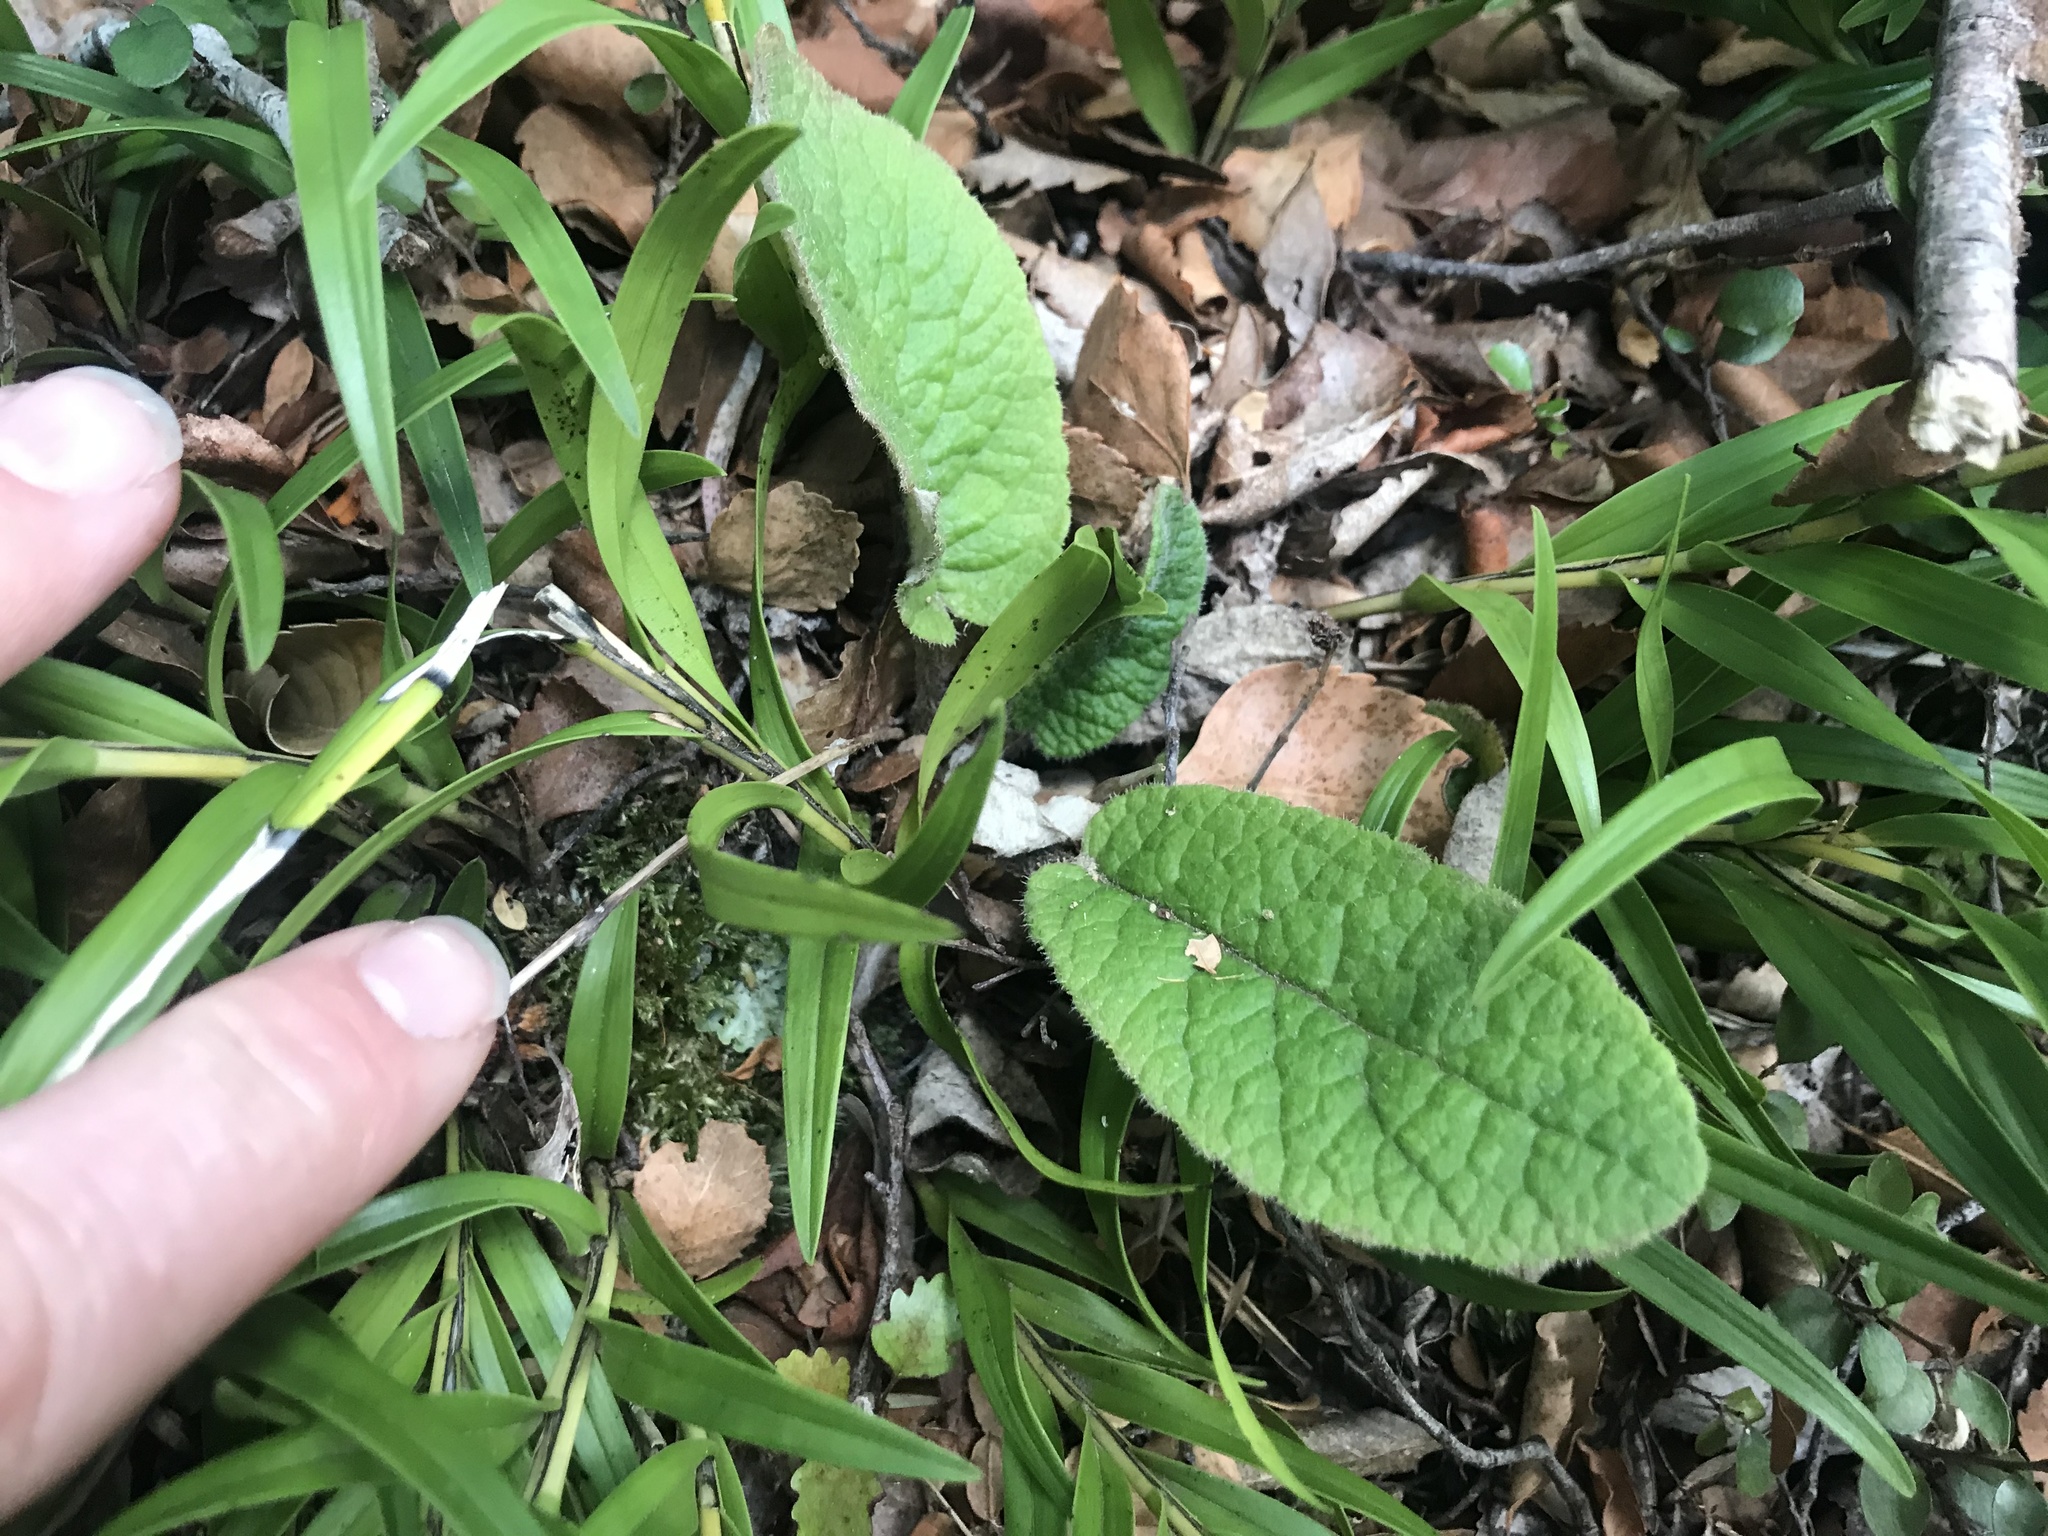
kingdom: Plantae
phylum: Tracheophyta
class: Magnoliopsida
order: Asterales
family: Asteraceae
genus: Brachyglottis
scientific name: Brachyglottis lagopus
